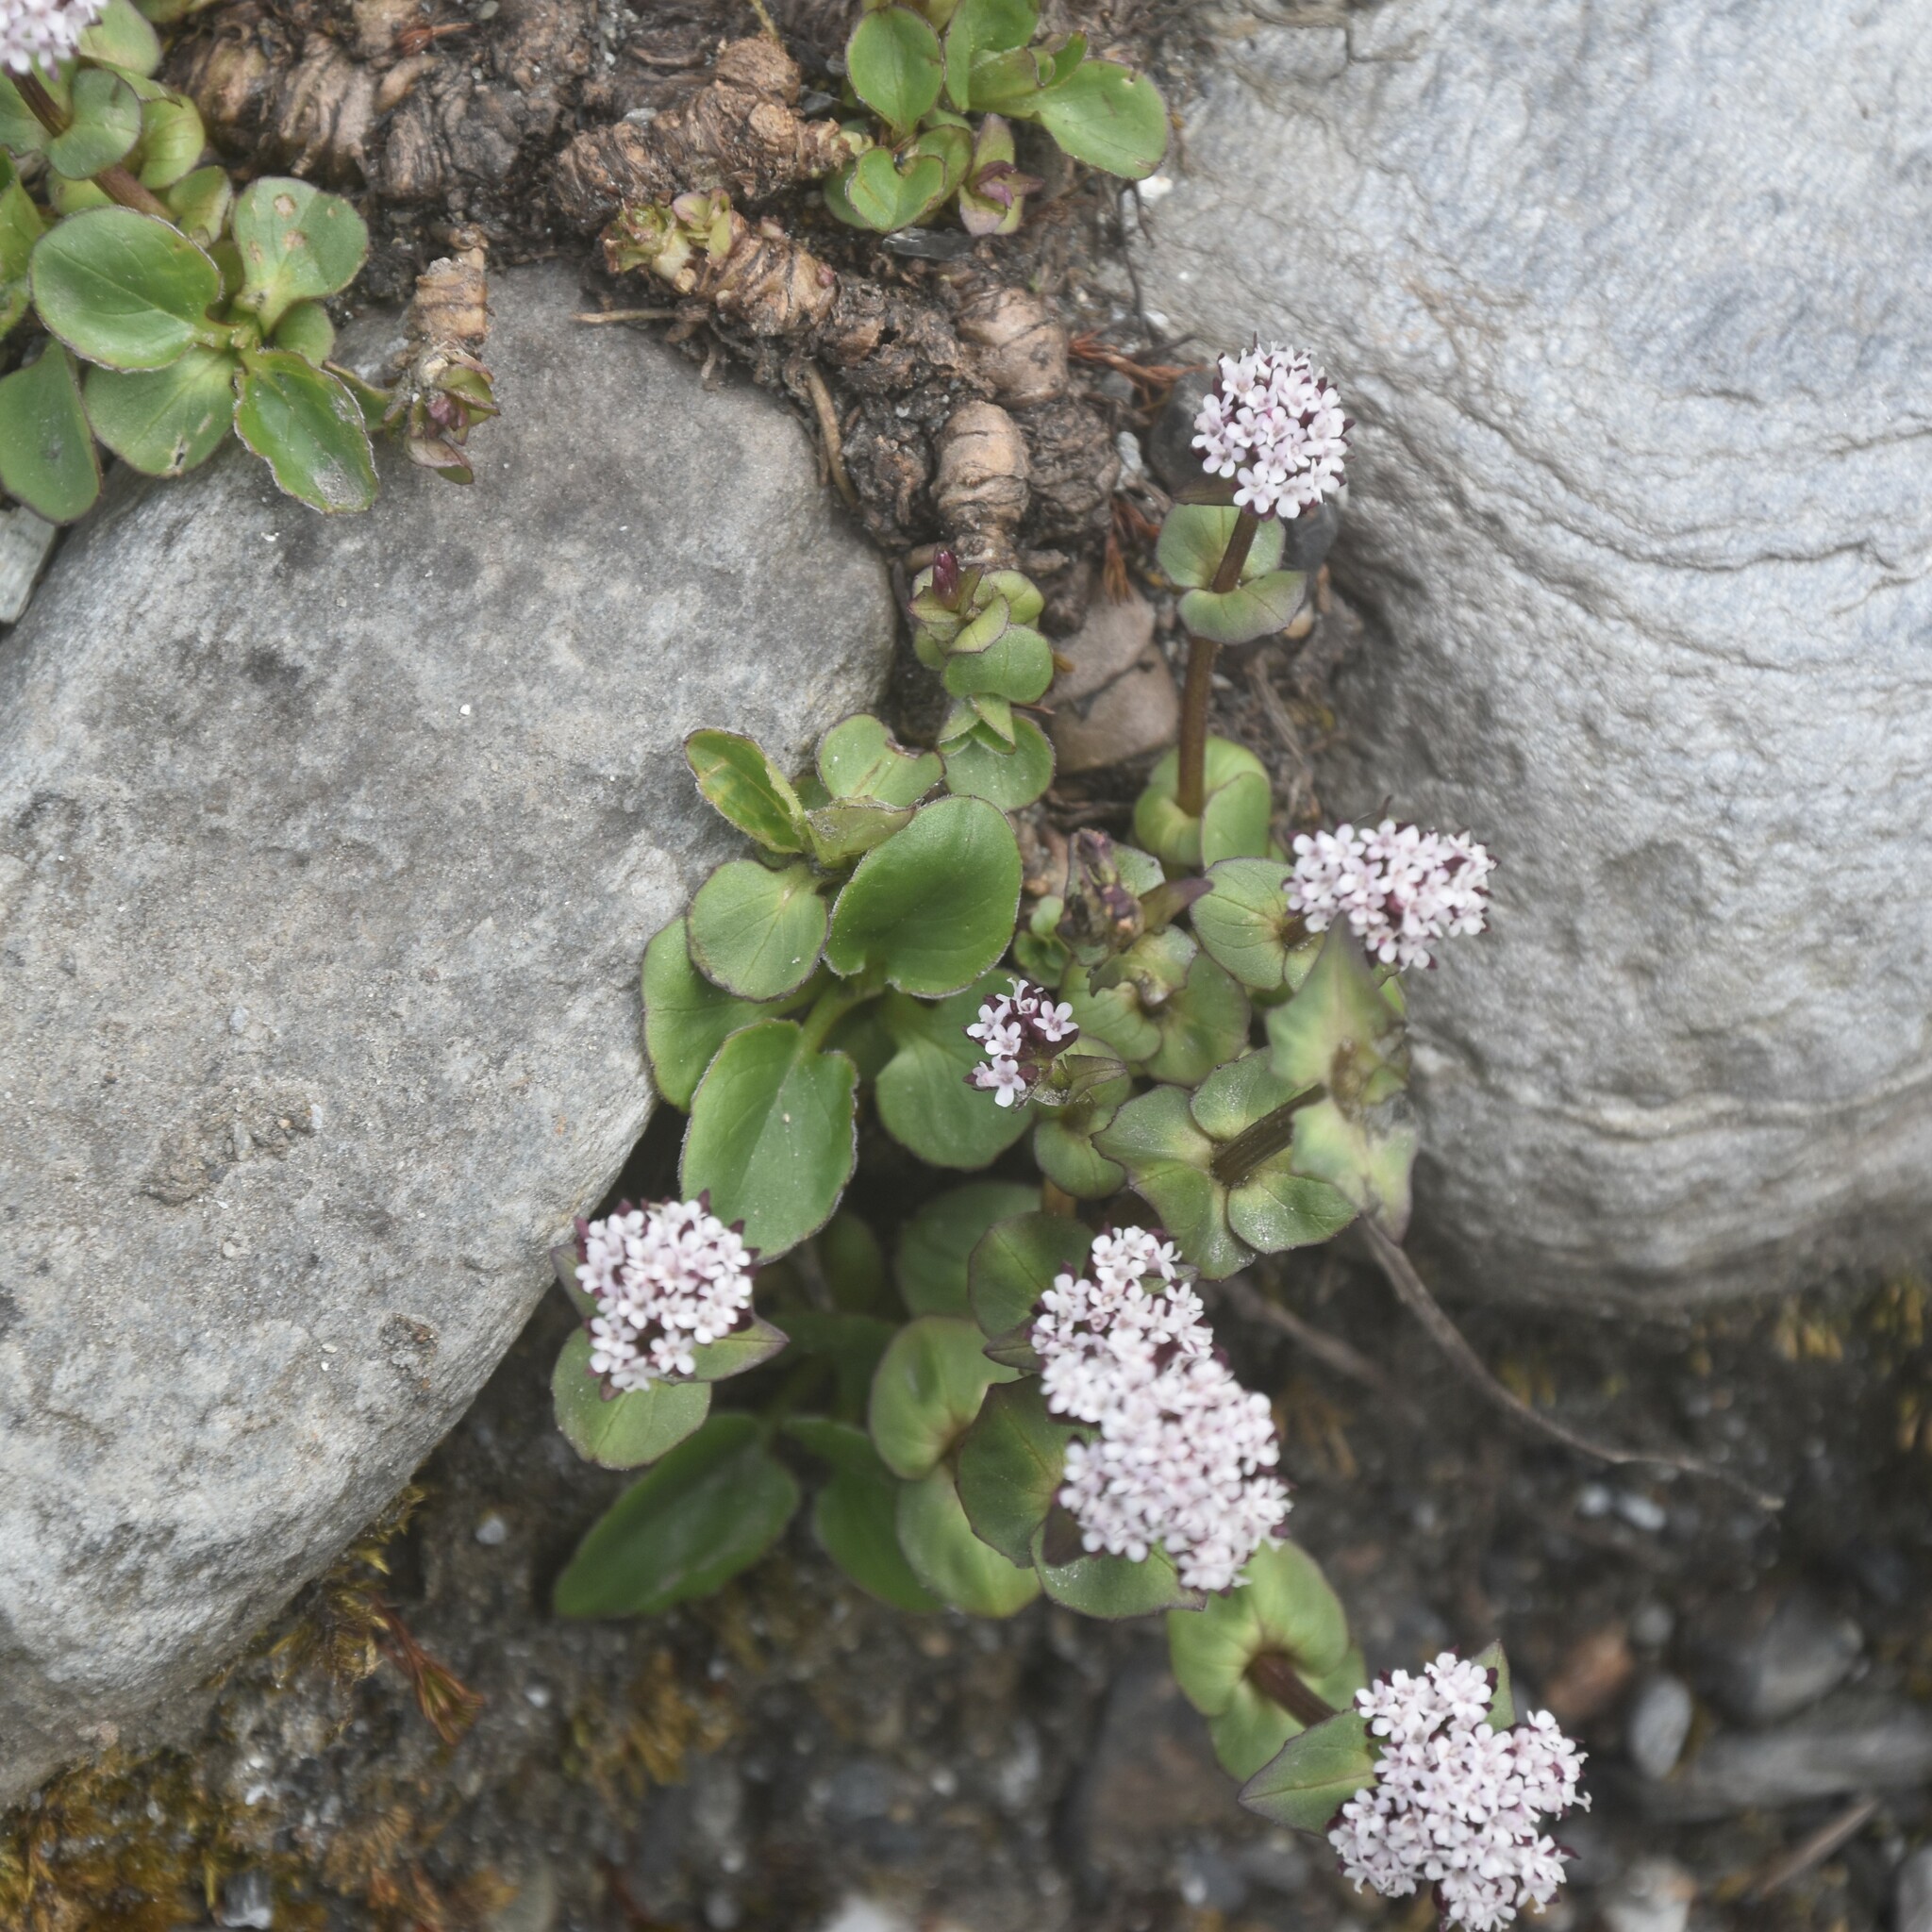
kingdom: Plantae
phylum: Tracheophyta
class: Magnoliopsida
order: Dipsacales
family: Caprifoliaceae
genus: Valeriana
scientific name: Valeriana pyrolifolia
